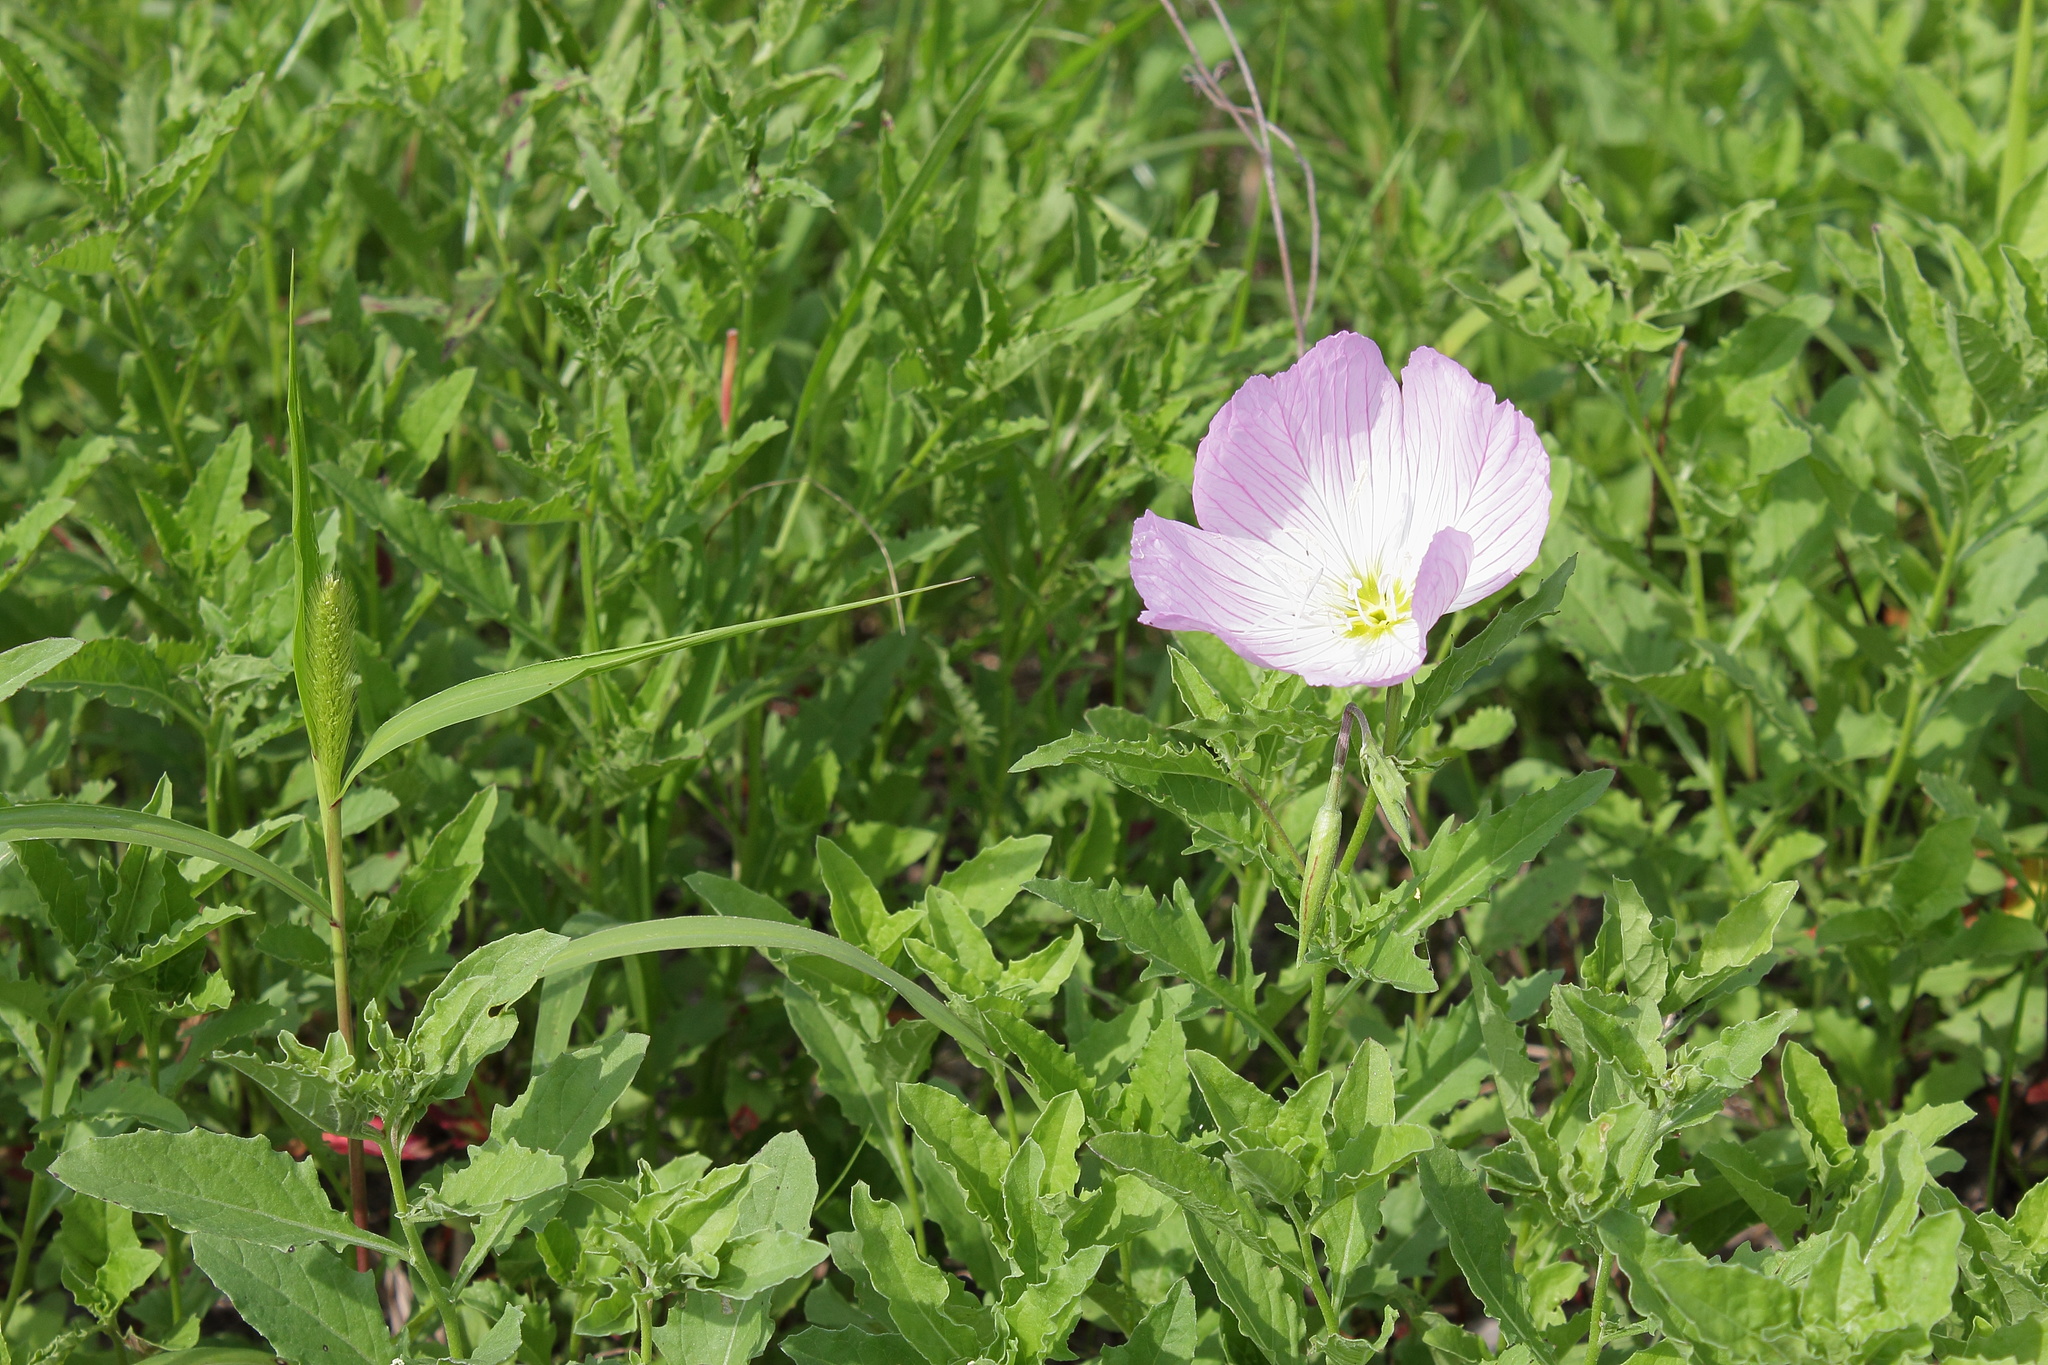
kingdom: Plantae
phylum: Tracheophyta
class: Magnoliopsida
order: Myrtales
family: Onagraceae
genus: Oenothera
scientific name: Oenothera speciosa
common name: White evening-primrose
